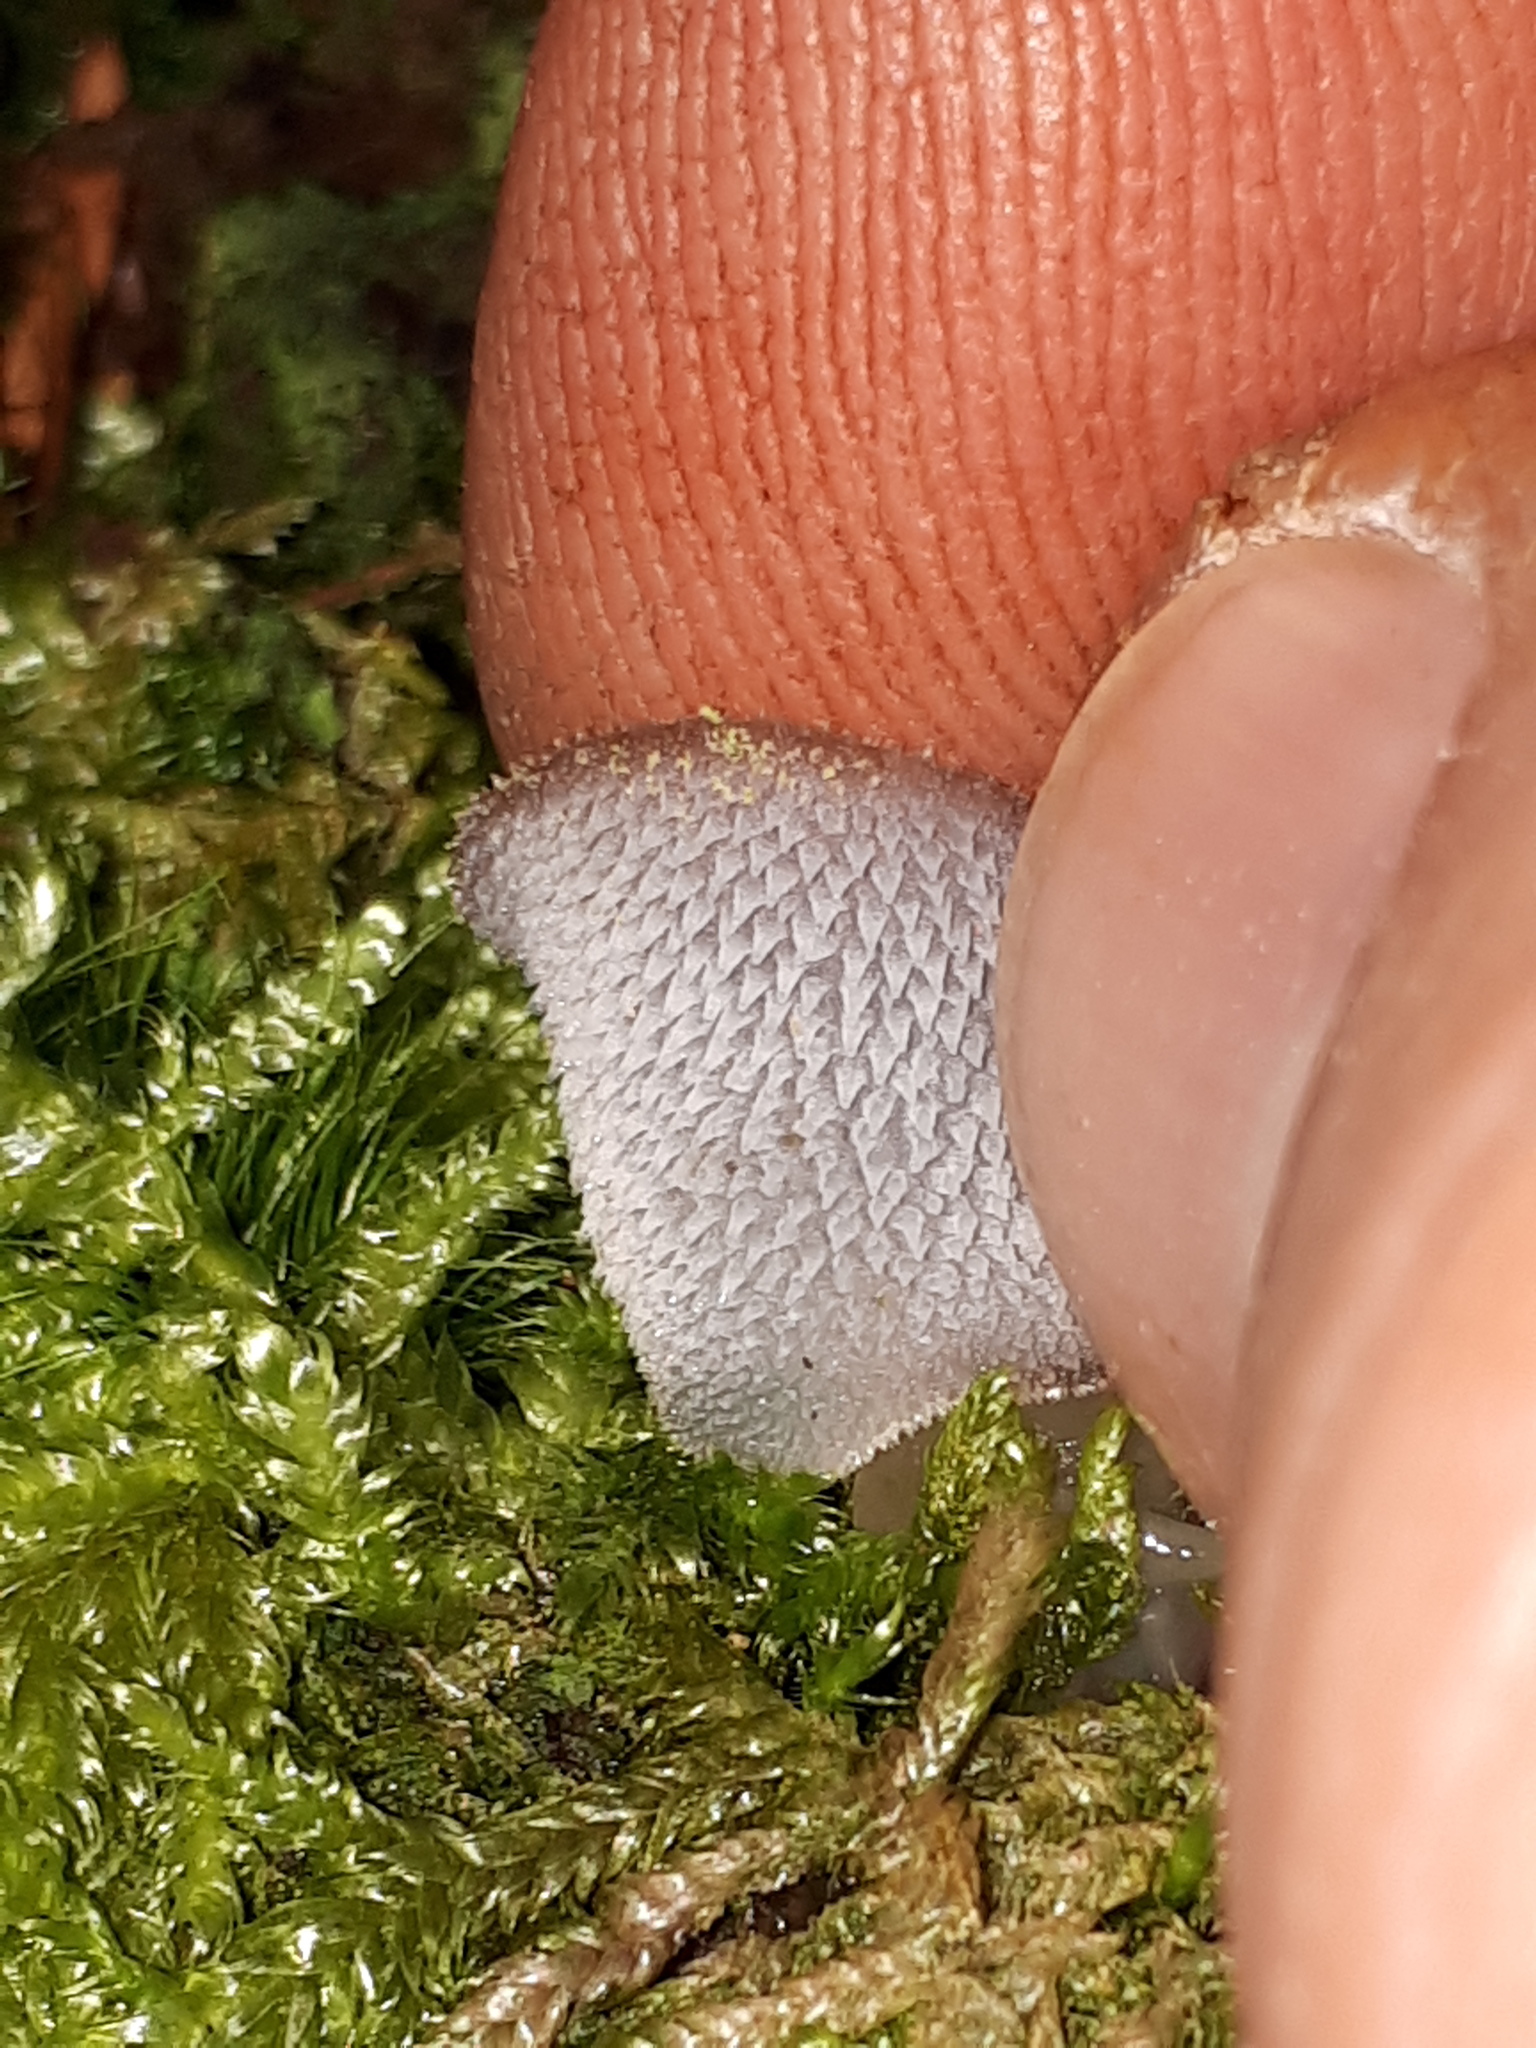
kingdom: Fungi
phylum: Basidiomycota
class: Agaricomycetes
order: Auriculariales
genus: Pseudohydnum
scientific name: Pseudohydnum gelatinosum
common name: Jelly tongue
